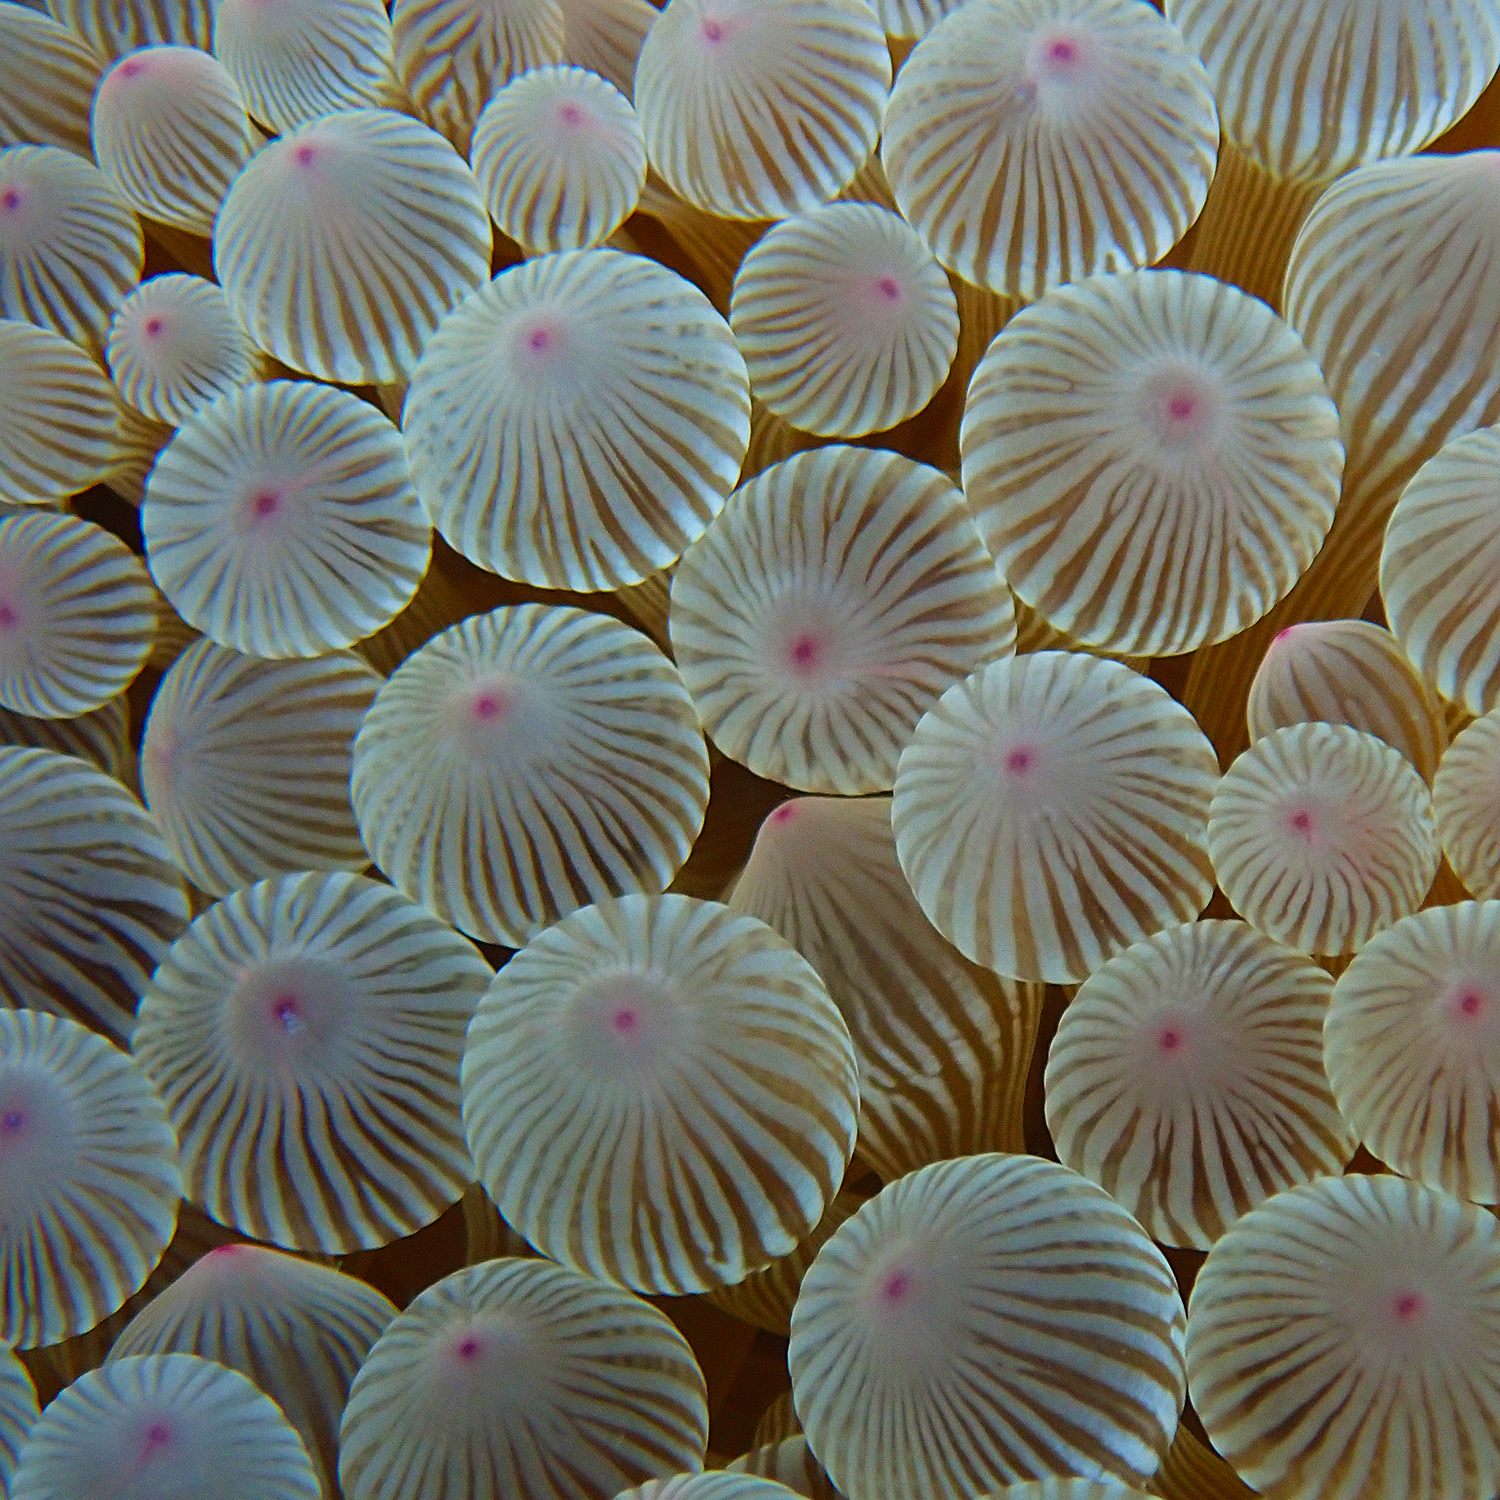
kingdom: Animalia
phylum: Cnidaria
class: Anthozoa
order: Actiniaria
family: Actiniidae
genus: Entacmaea
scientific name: Entacmaea quadricolor
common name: Bulb tentacle sea anemone
